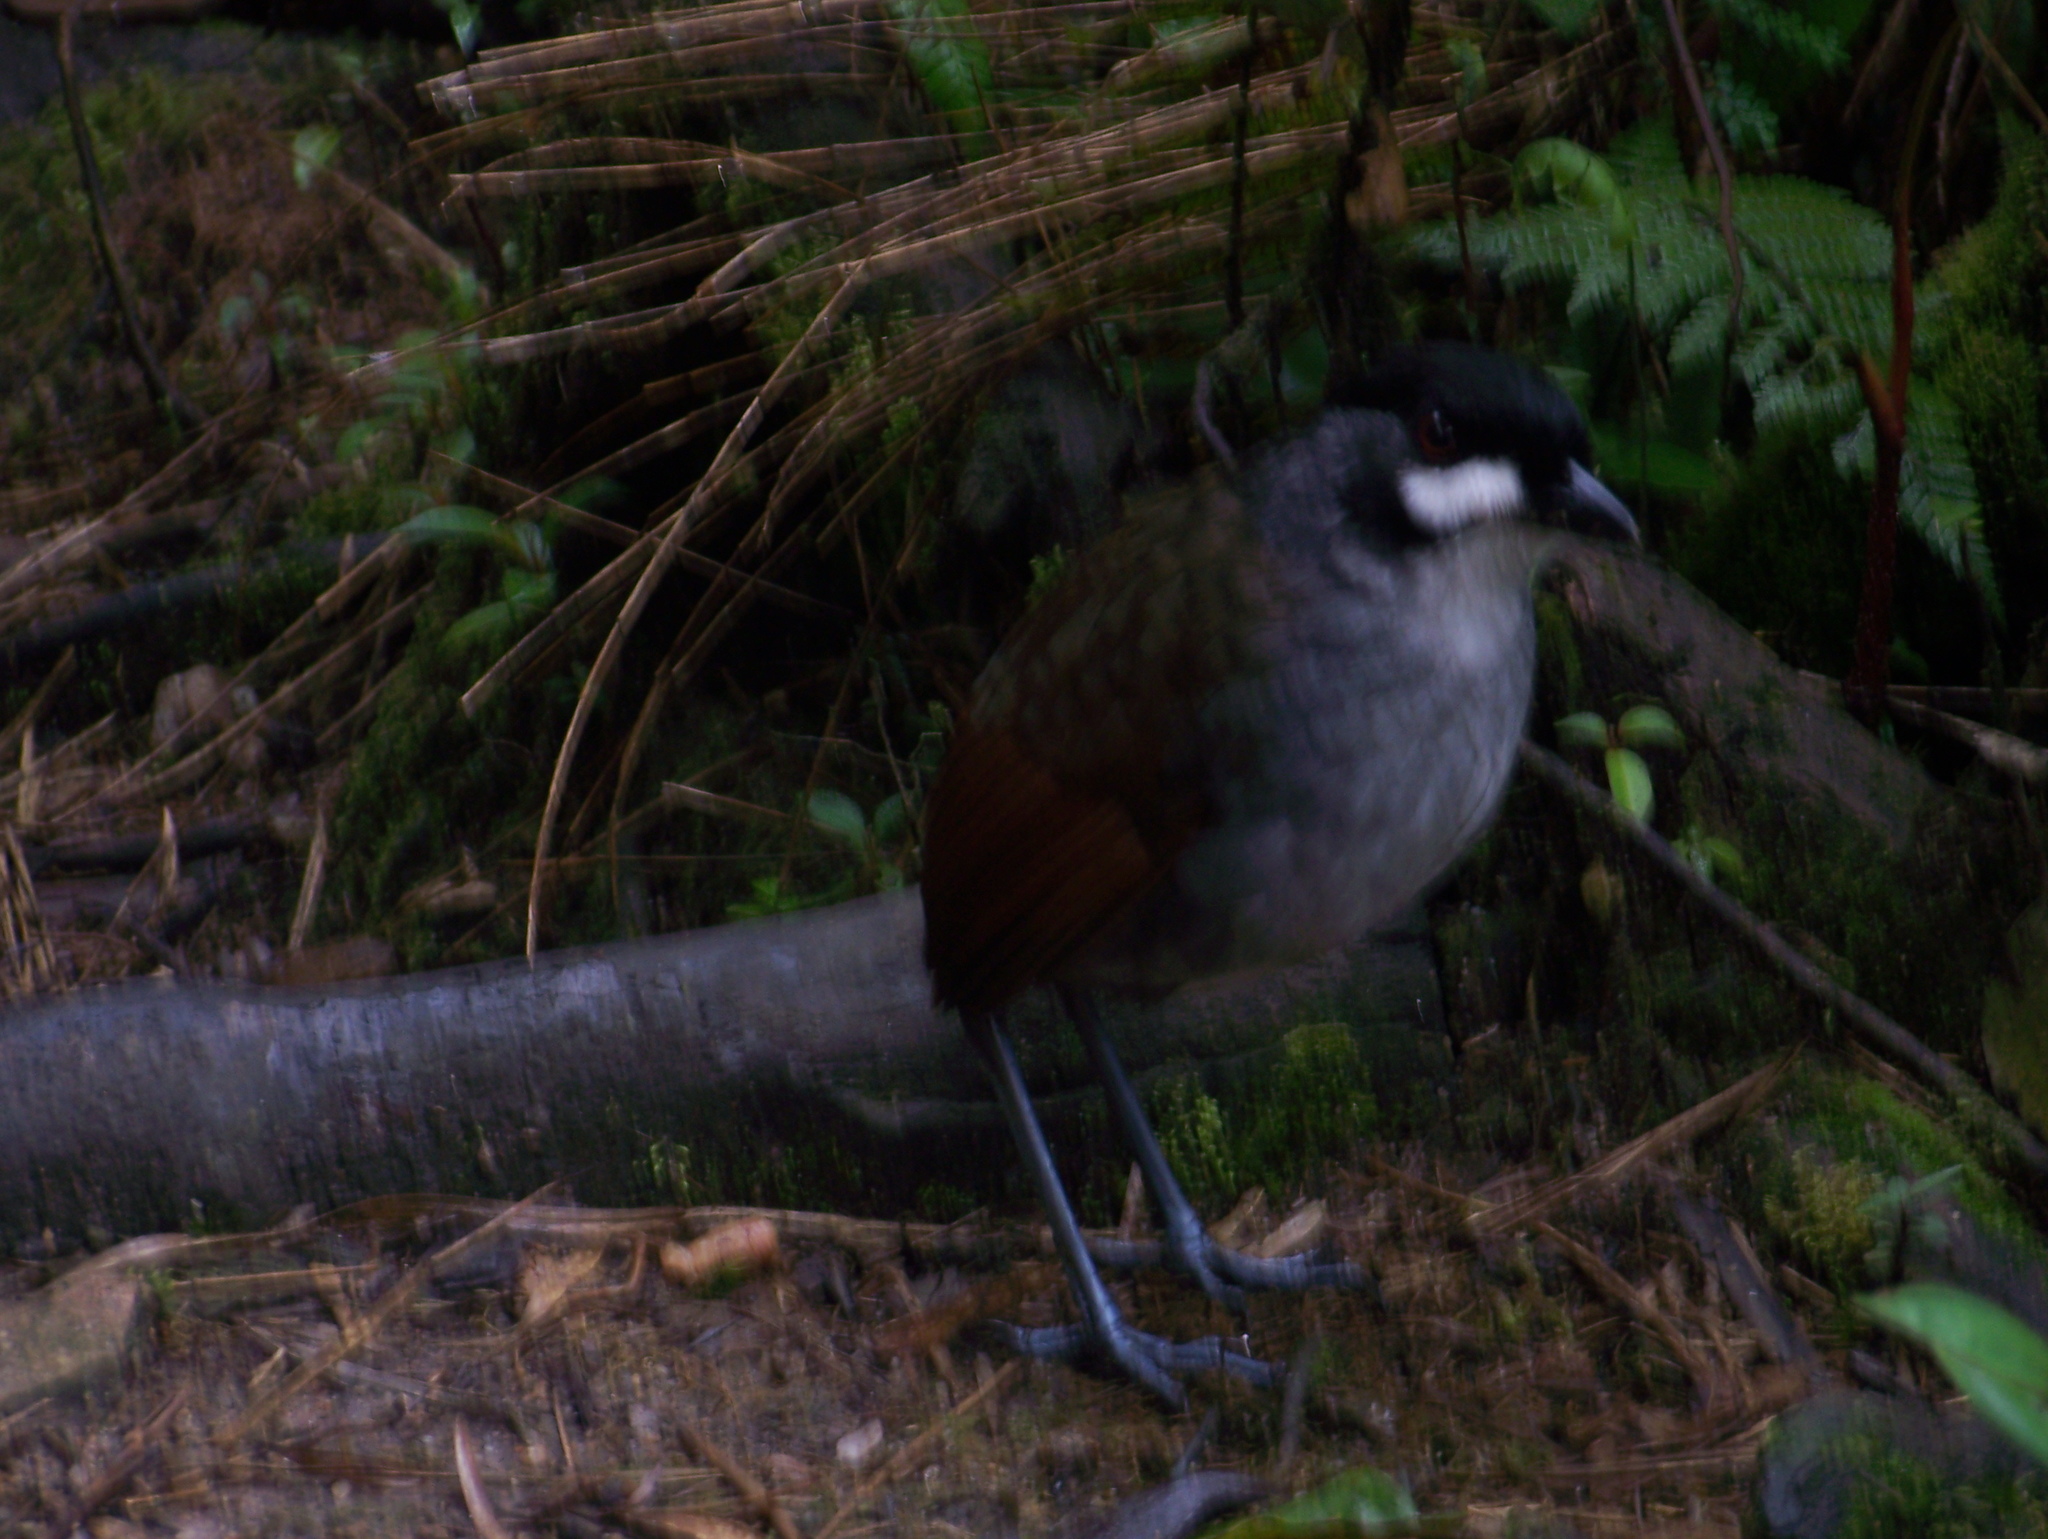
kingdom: Animalia
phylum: Chordata
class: Aves
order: Passeriformes
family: Grallariidae
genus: Grallaria
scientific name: Grallaria ridgelyi
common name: Jocotoco antpitta
